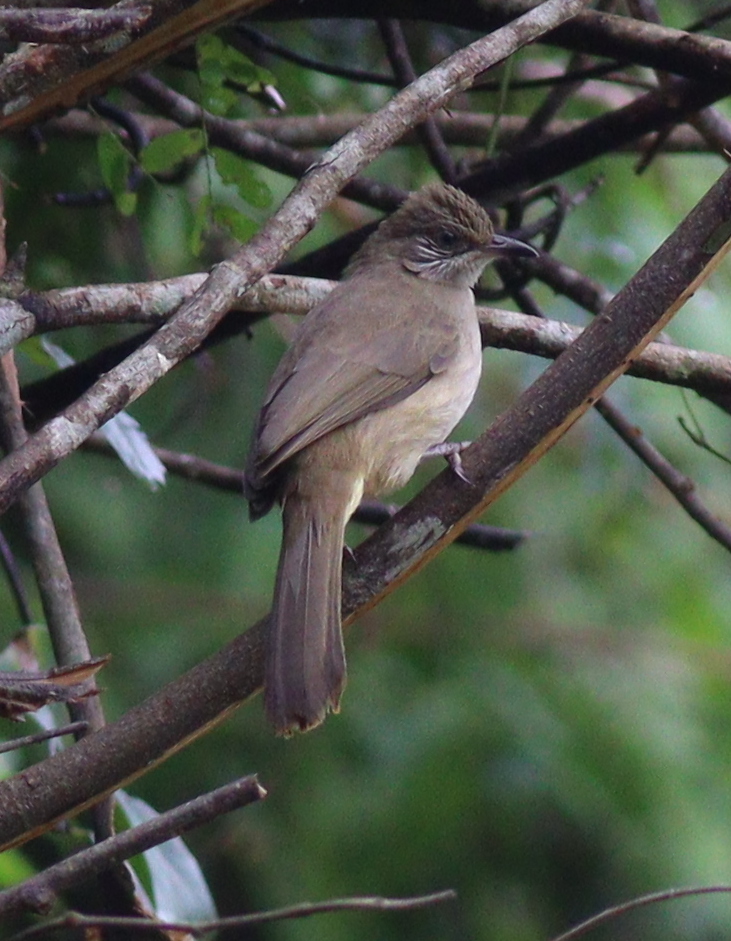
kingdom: Animalia
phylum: Chordata
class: Aves
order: Passeriformes
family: Pycnonotidae
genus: Pycnonotus
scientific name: Pycnonotus blanfordi
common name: Streak-eared bulbul
